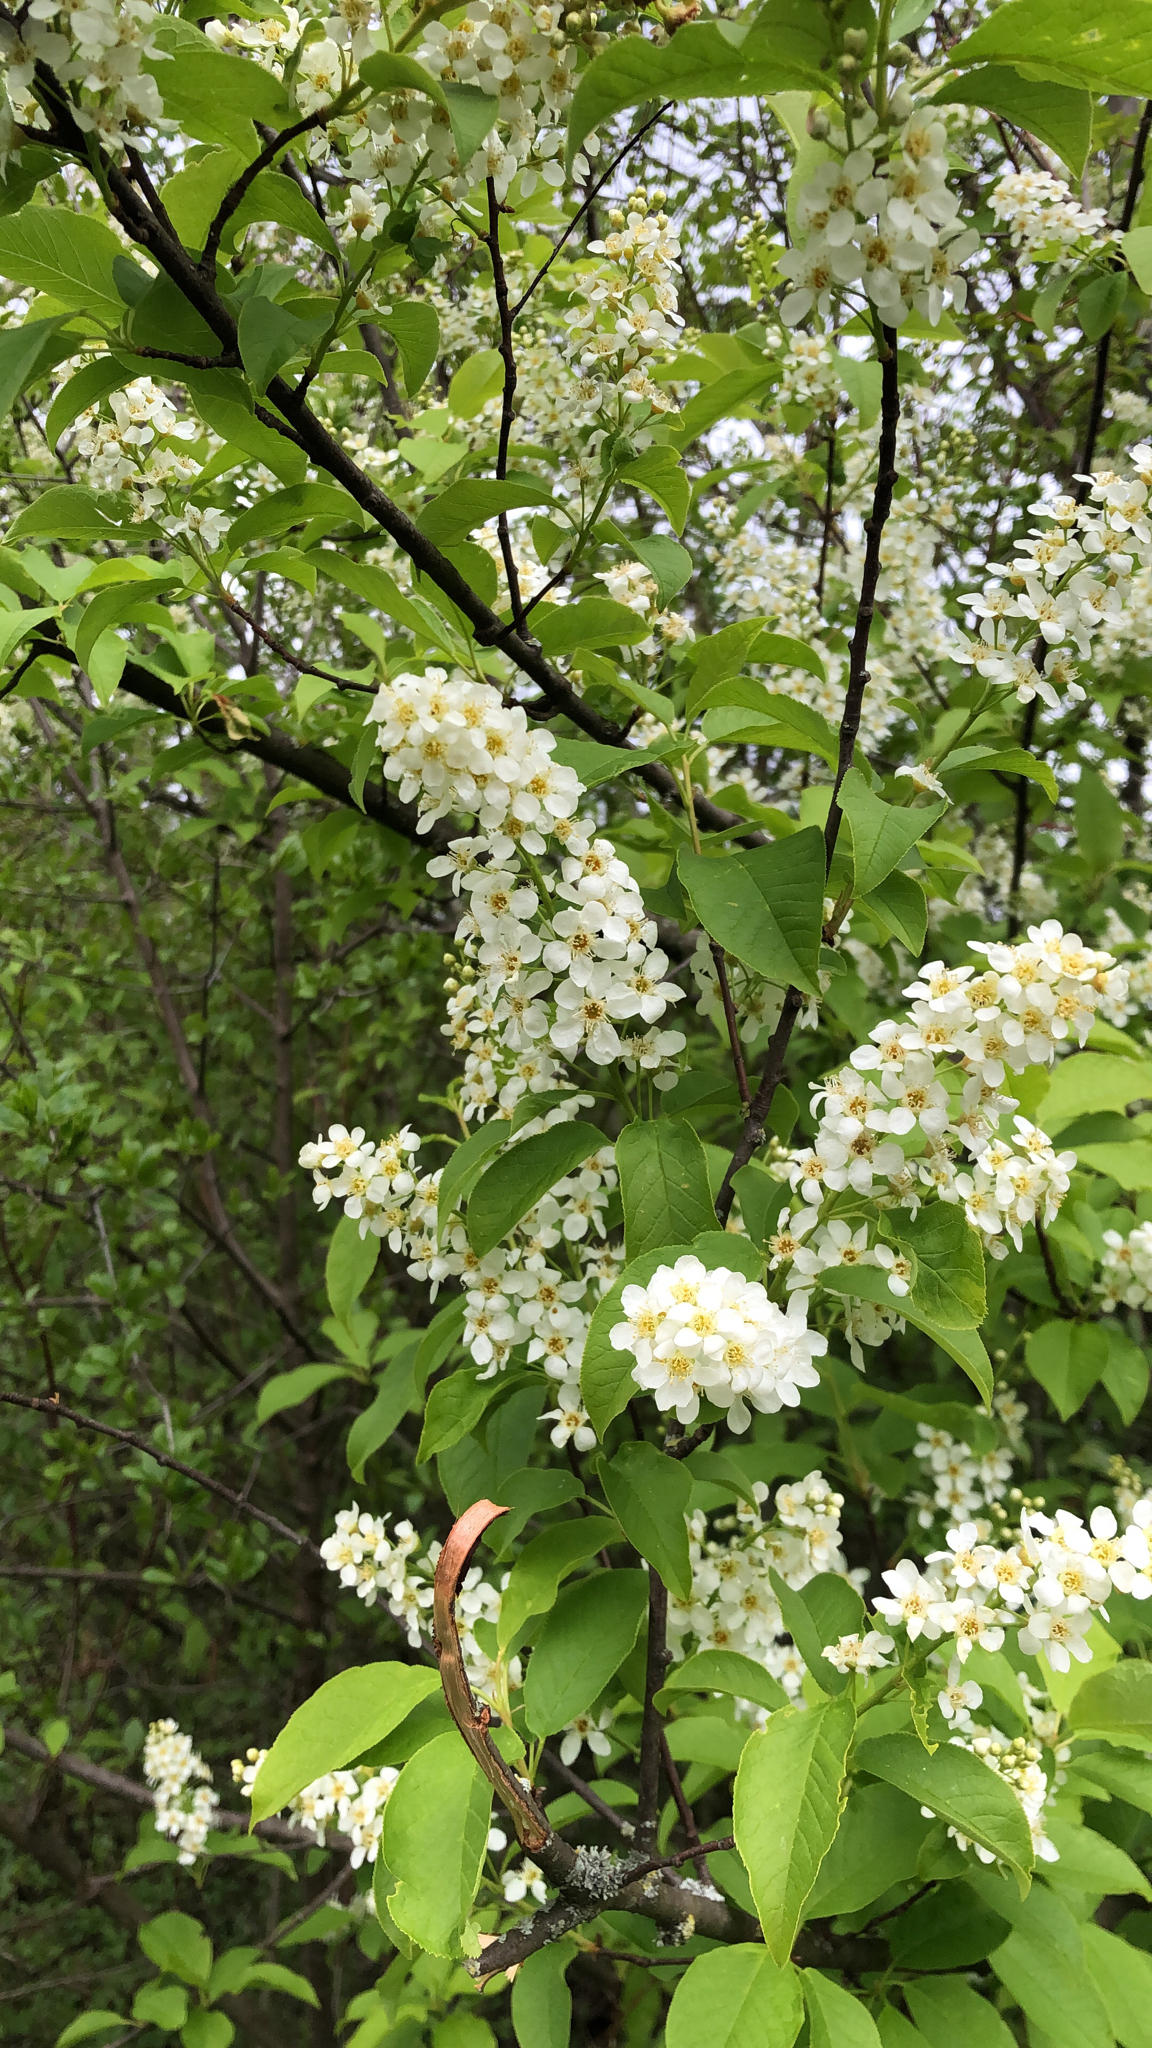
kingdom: Plantae
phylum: Tracheophyta
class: Magnoliopsida
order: Rosales
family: Rosaceae
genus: Prunus
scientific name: Prunus padus
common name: Bird cherry
